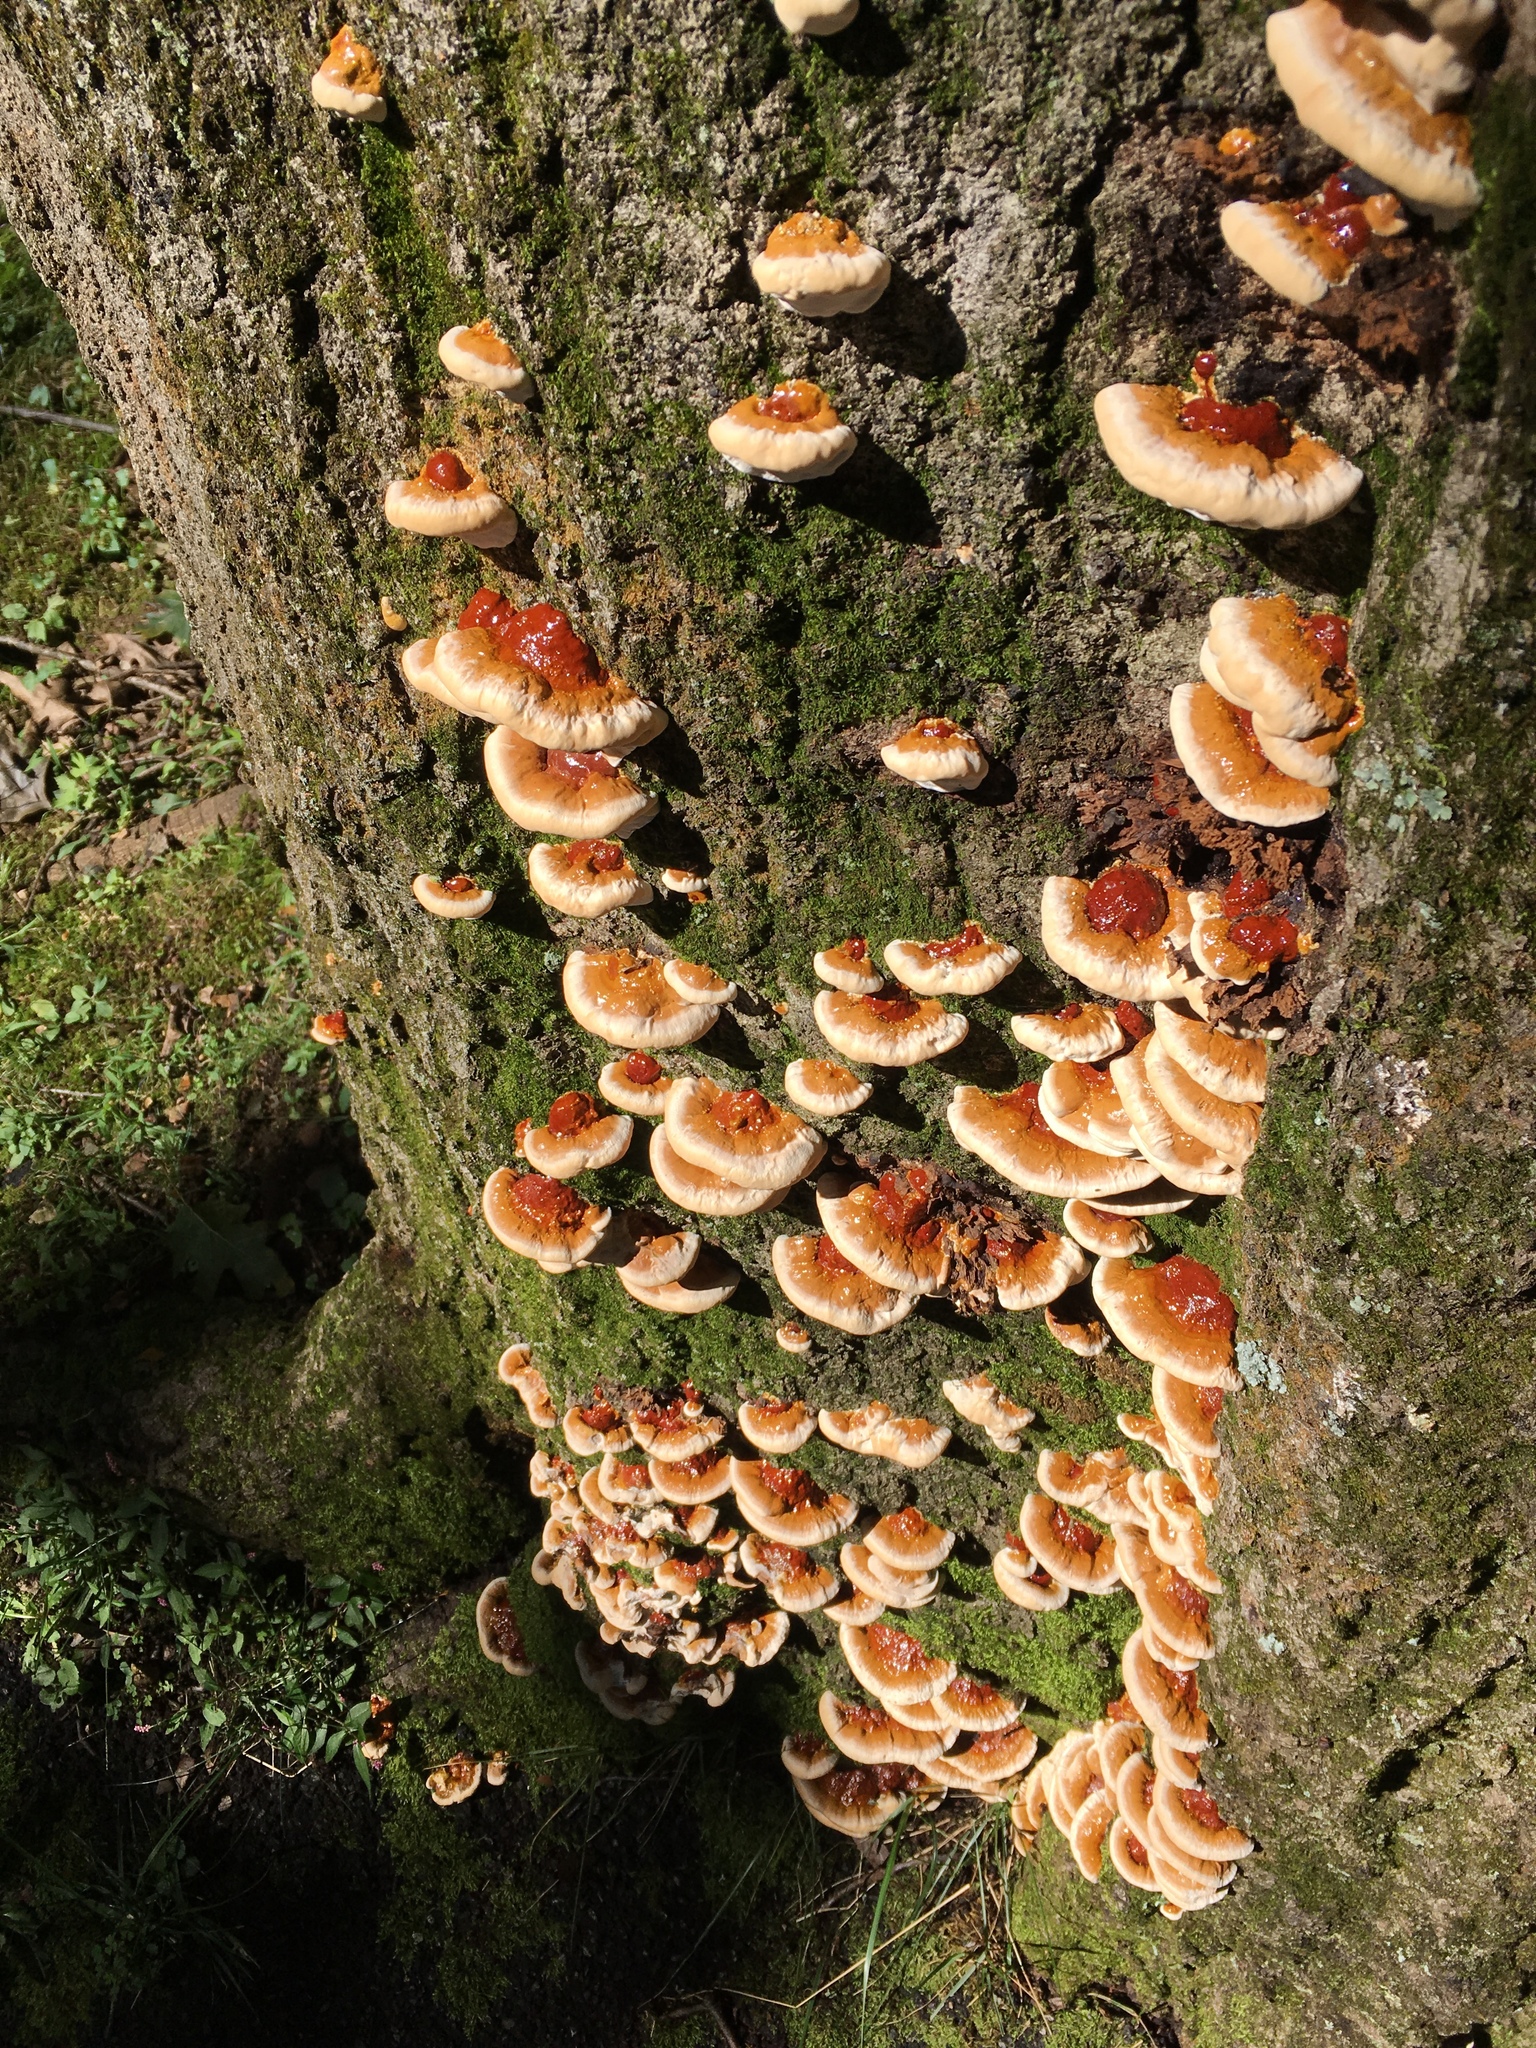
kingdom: Fungi
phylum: Basidiomycota
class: Agaricomycetes
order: Polyporales
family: Polyporaceae
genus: Ganoderma
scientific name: Ganoderma resinaceum
